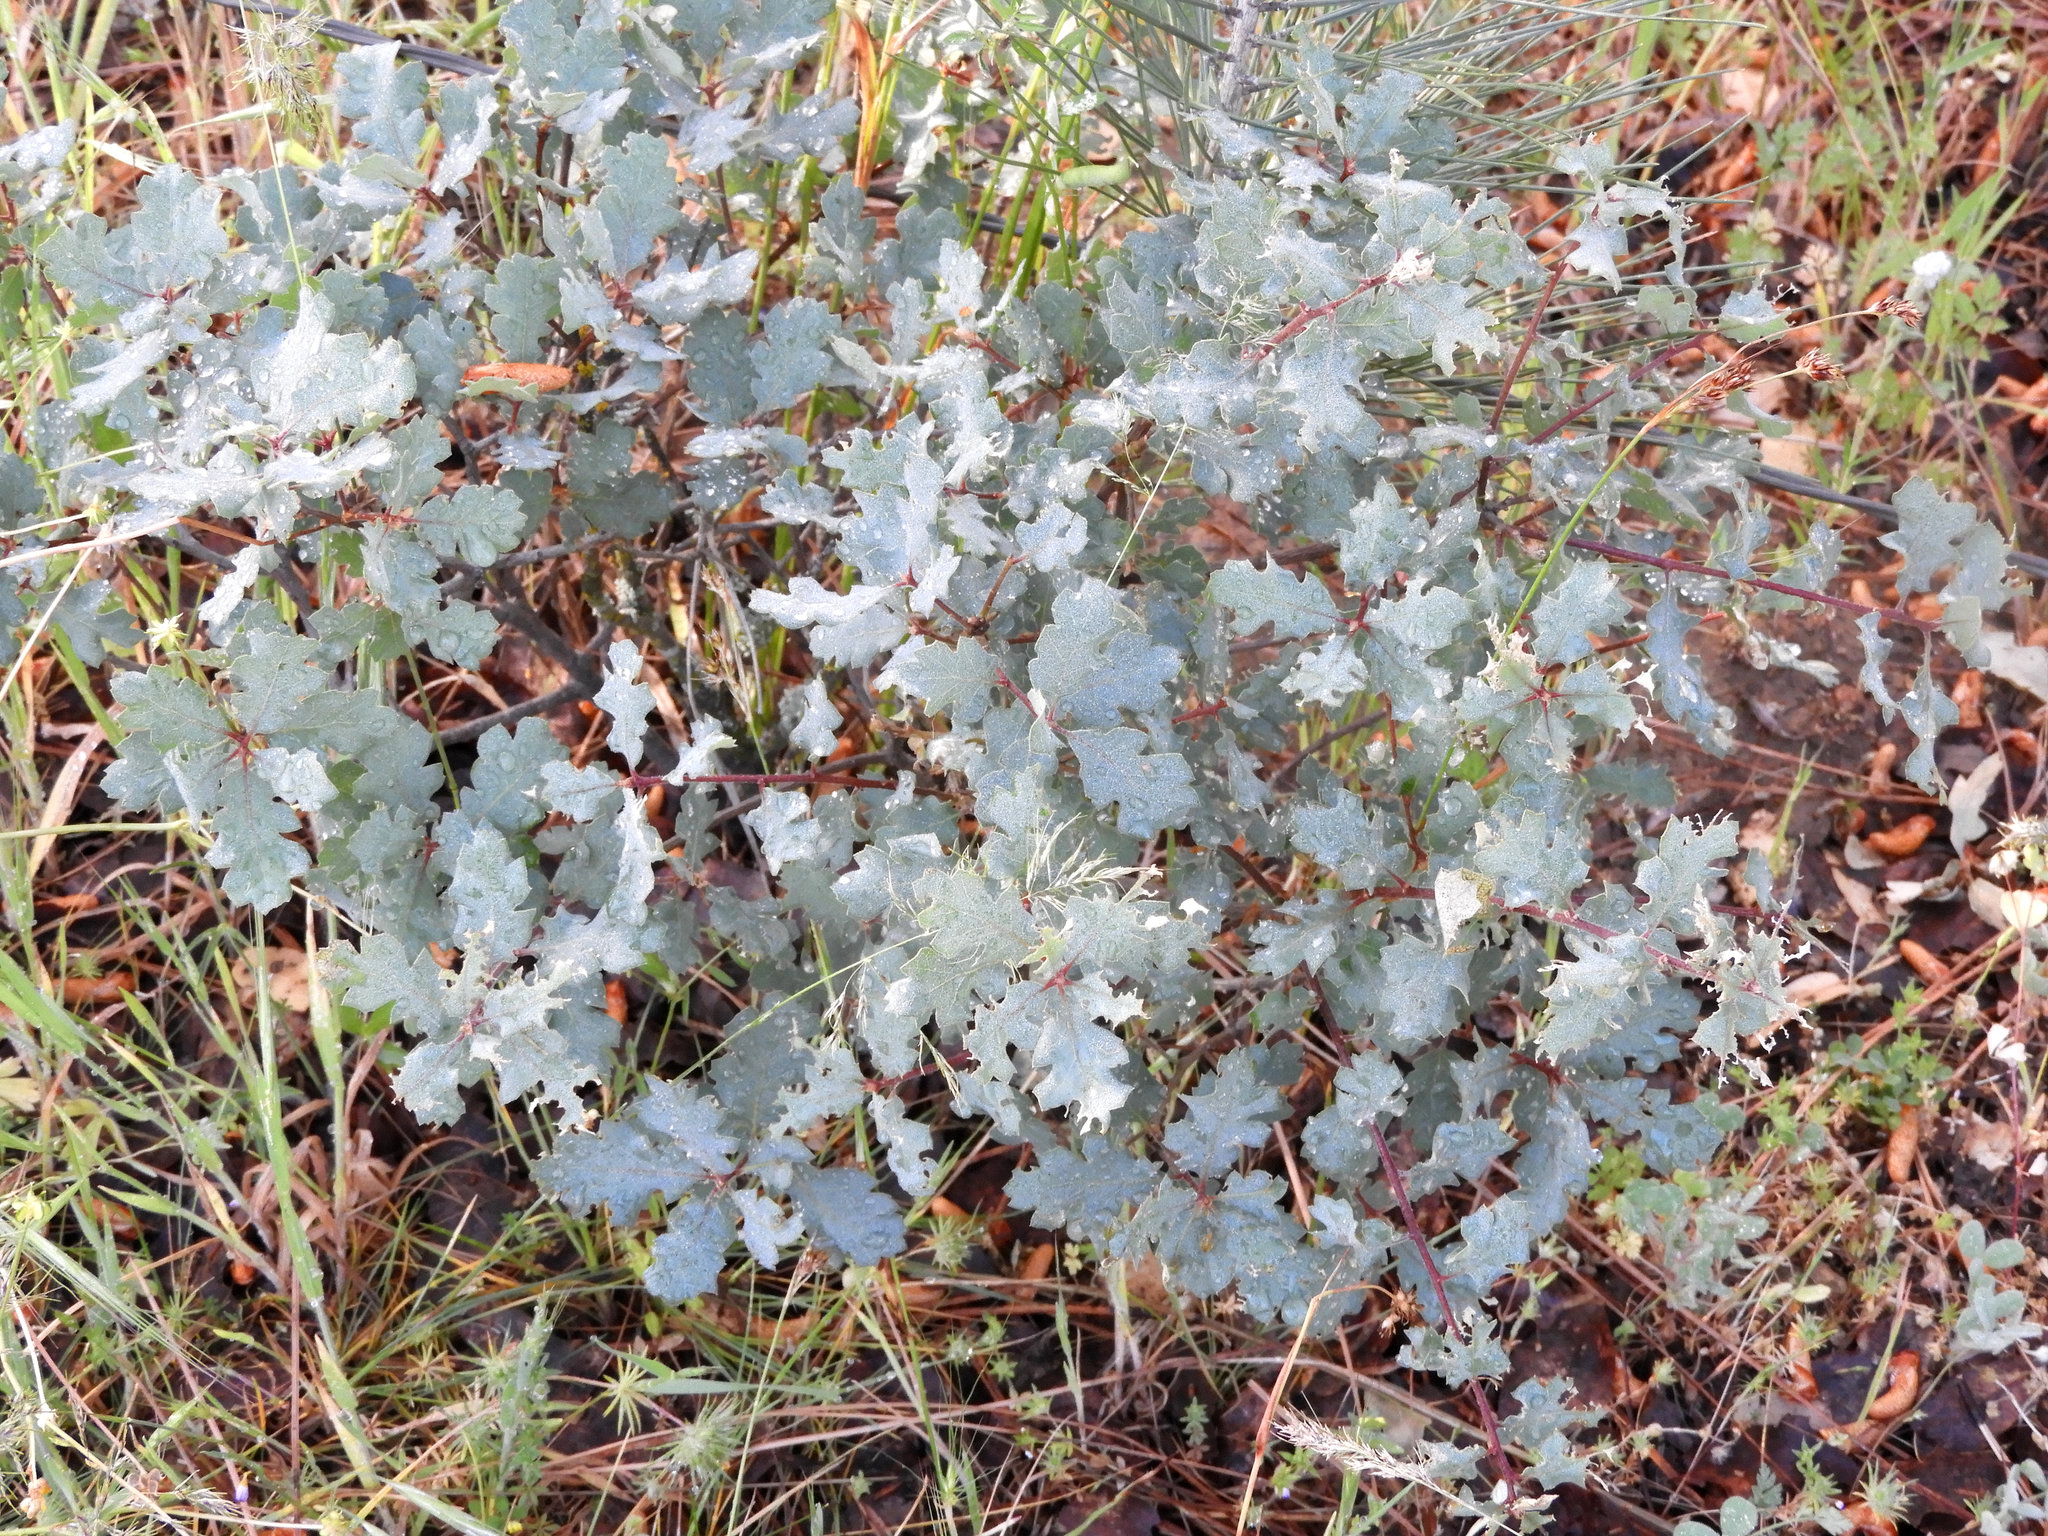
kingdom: Plantae
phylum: Tracheophyta
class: Magnoliopsida
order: Fagales
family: Fagaceae
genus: Quercus
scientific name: Quercus douglasii
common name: Blue oak
